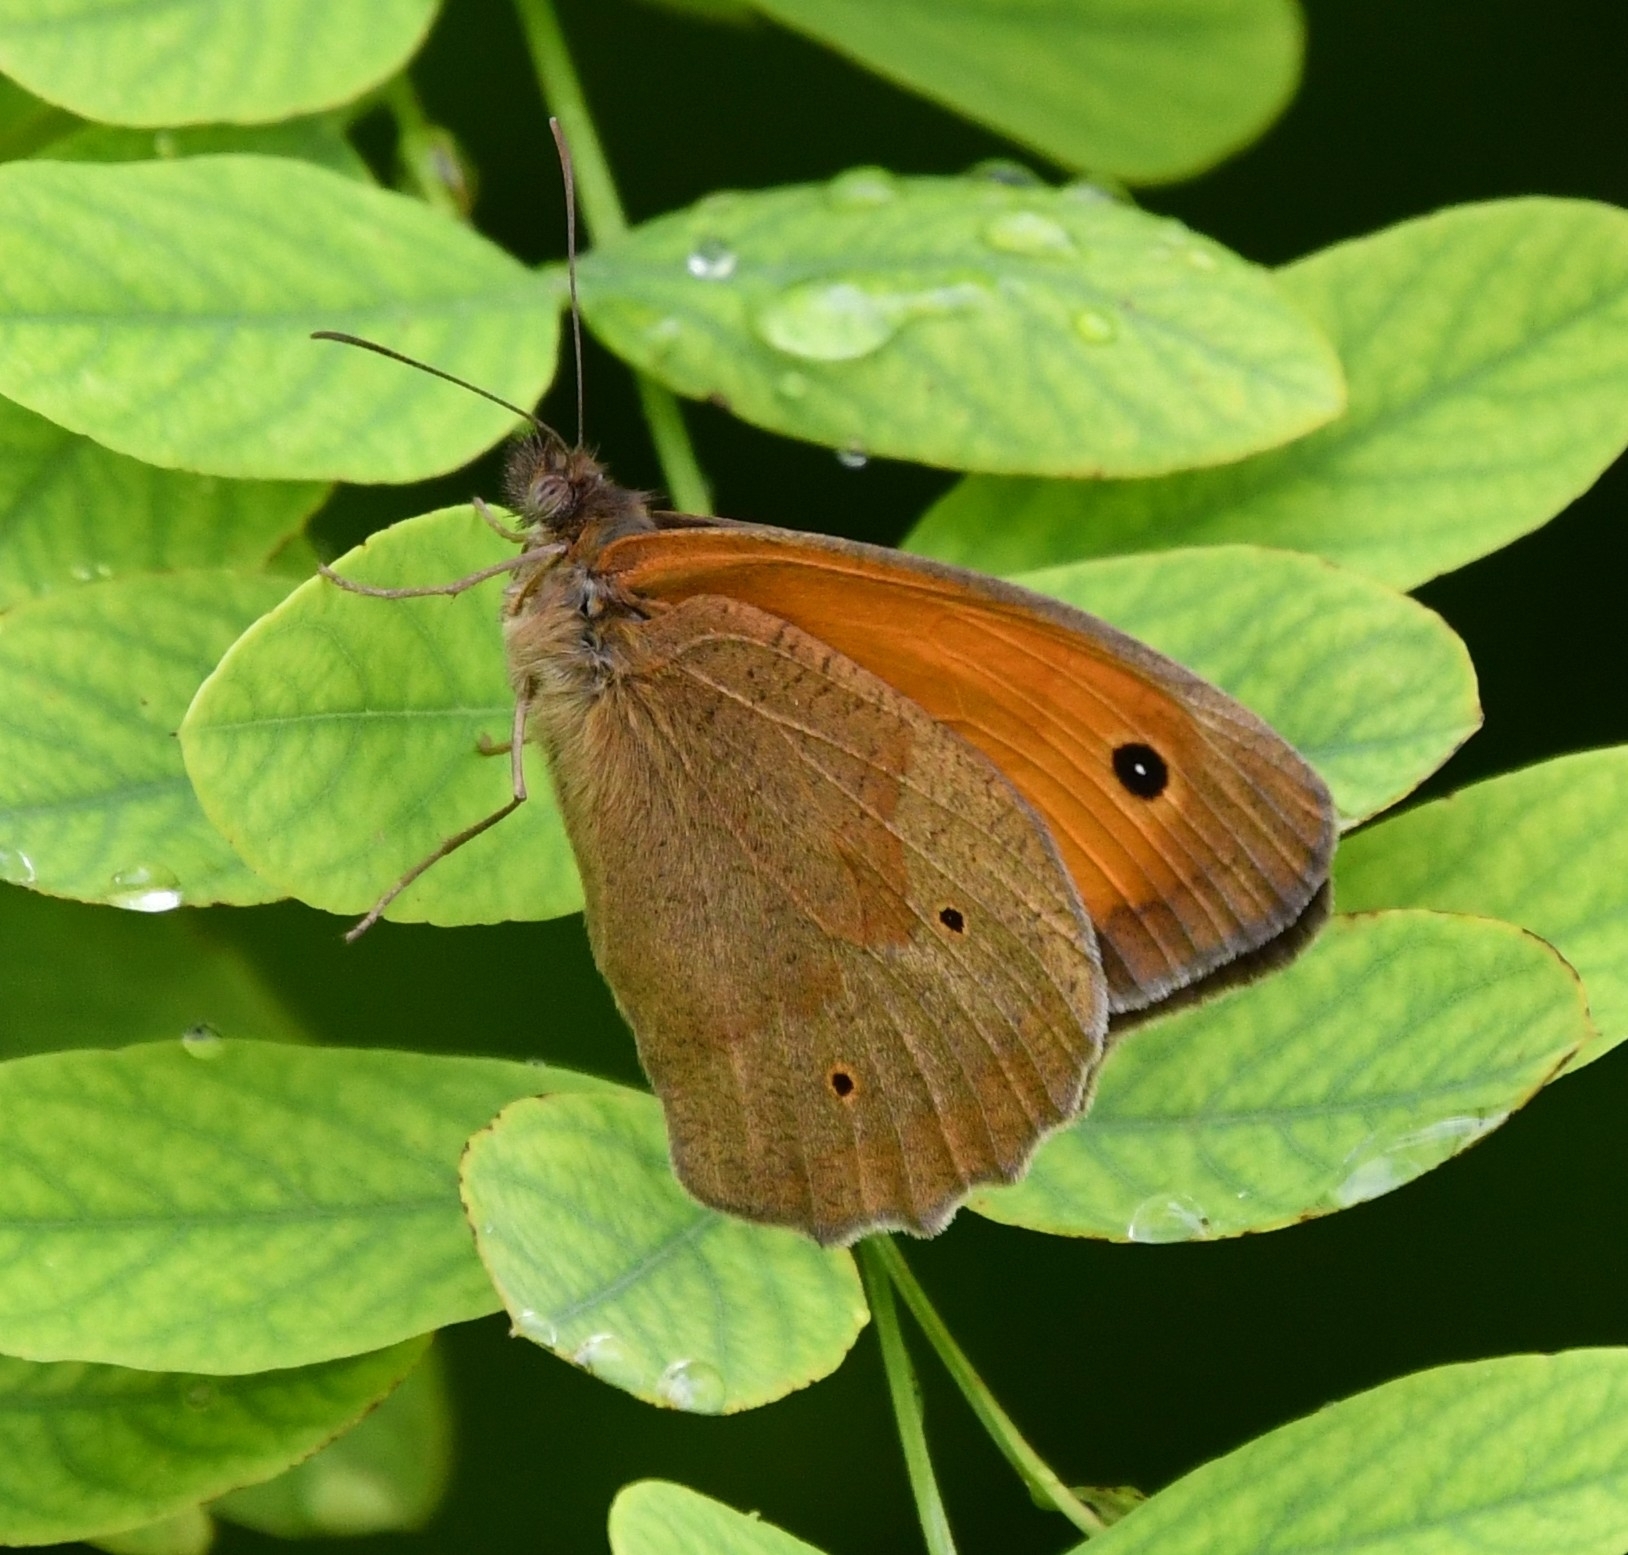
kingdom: Animalia
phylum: Arthropoda
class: Insecta
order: Lepidoptera
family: Nymphalidae
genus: Maniola
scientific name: Maniola jurtina
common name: Meadow brown
